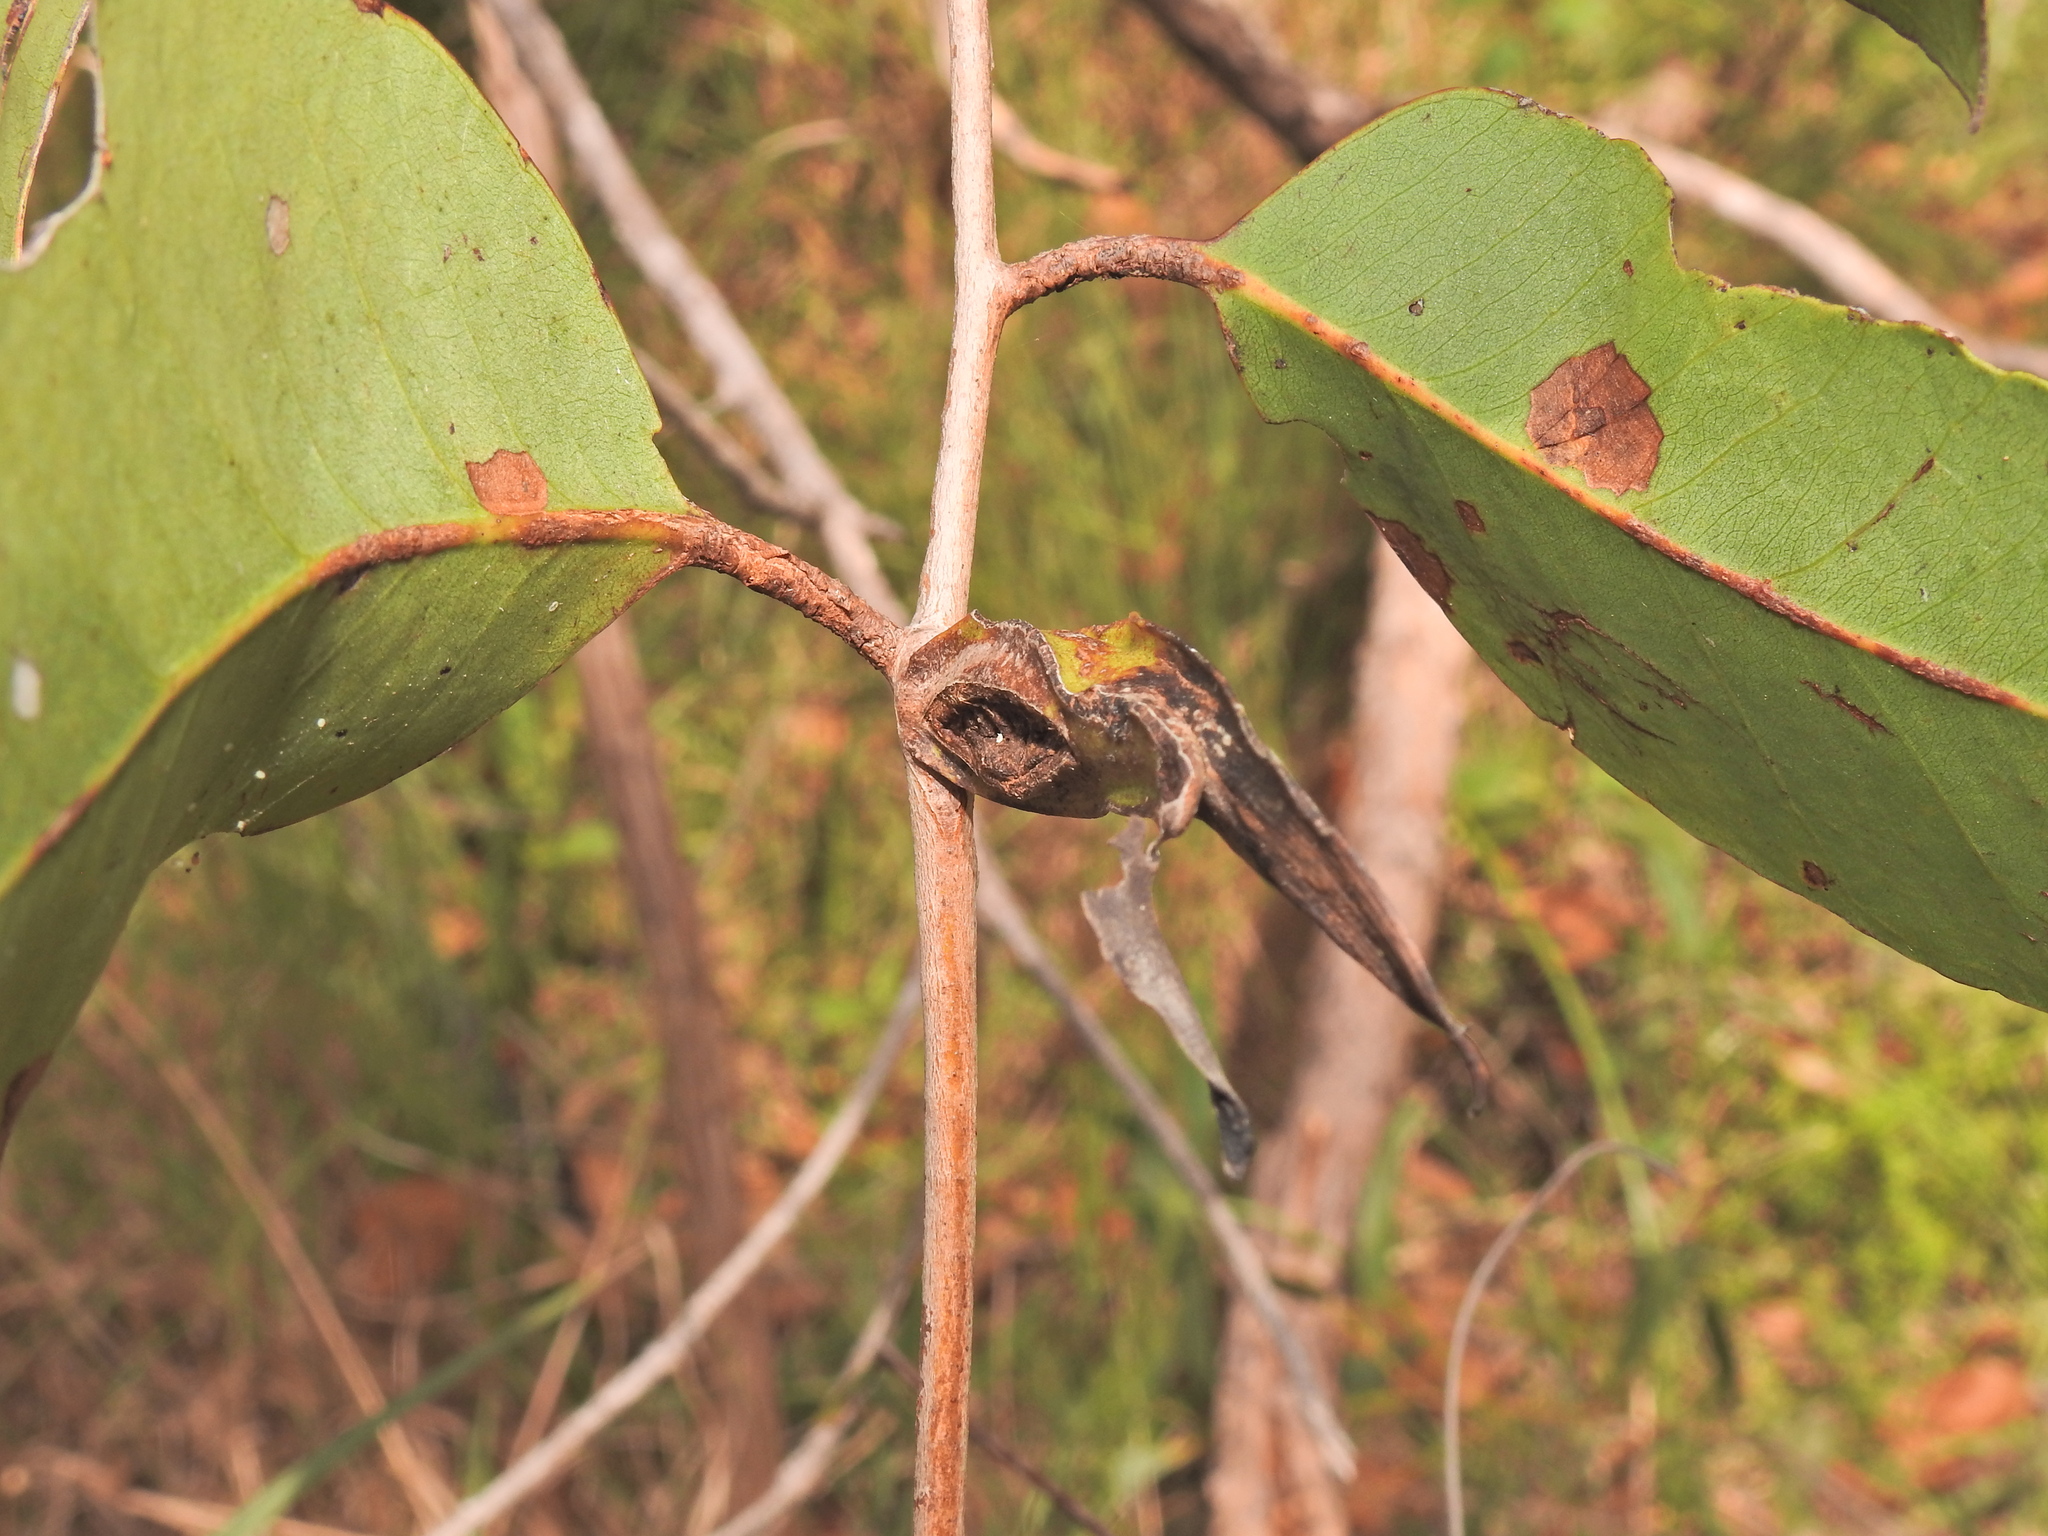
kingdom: Animalia
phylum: Arthropoda
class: Insecta
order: Hemiptera
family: Eriococcidae
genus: Apiomorpha
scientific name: Apiomorpha duplex
